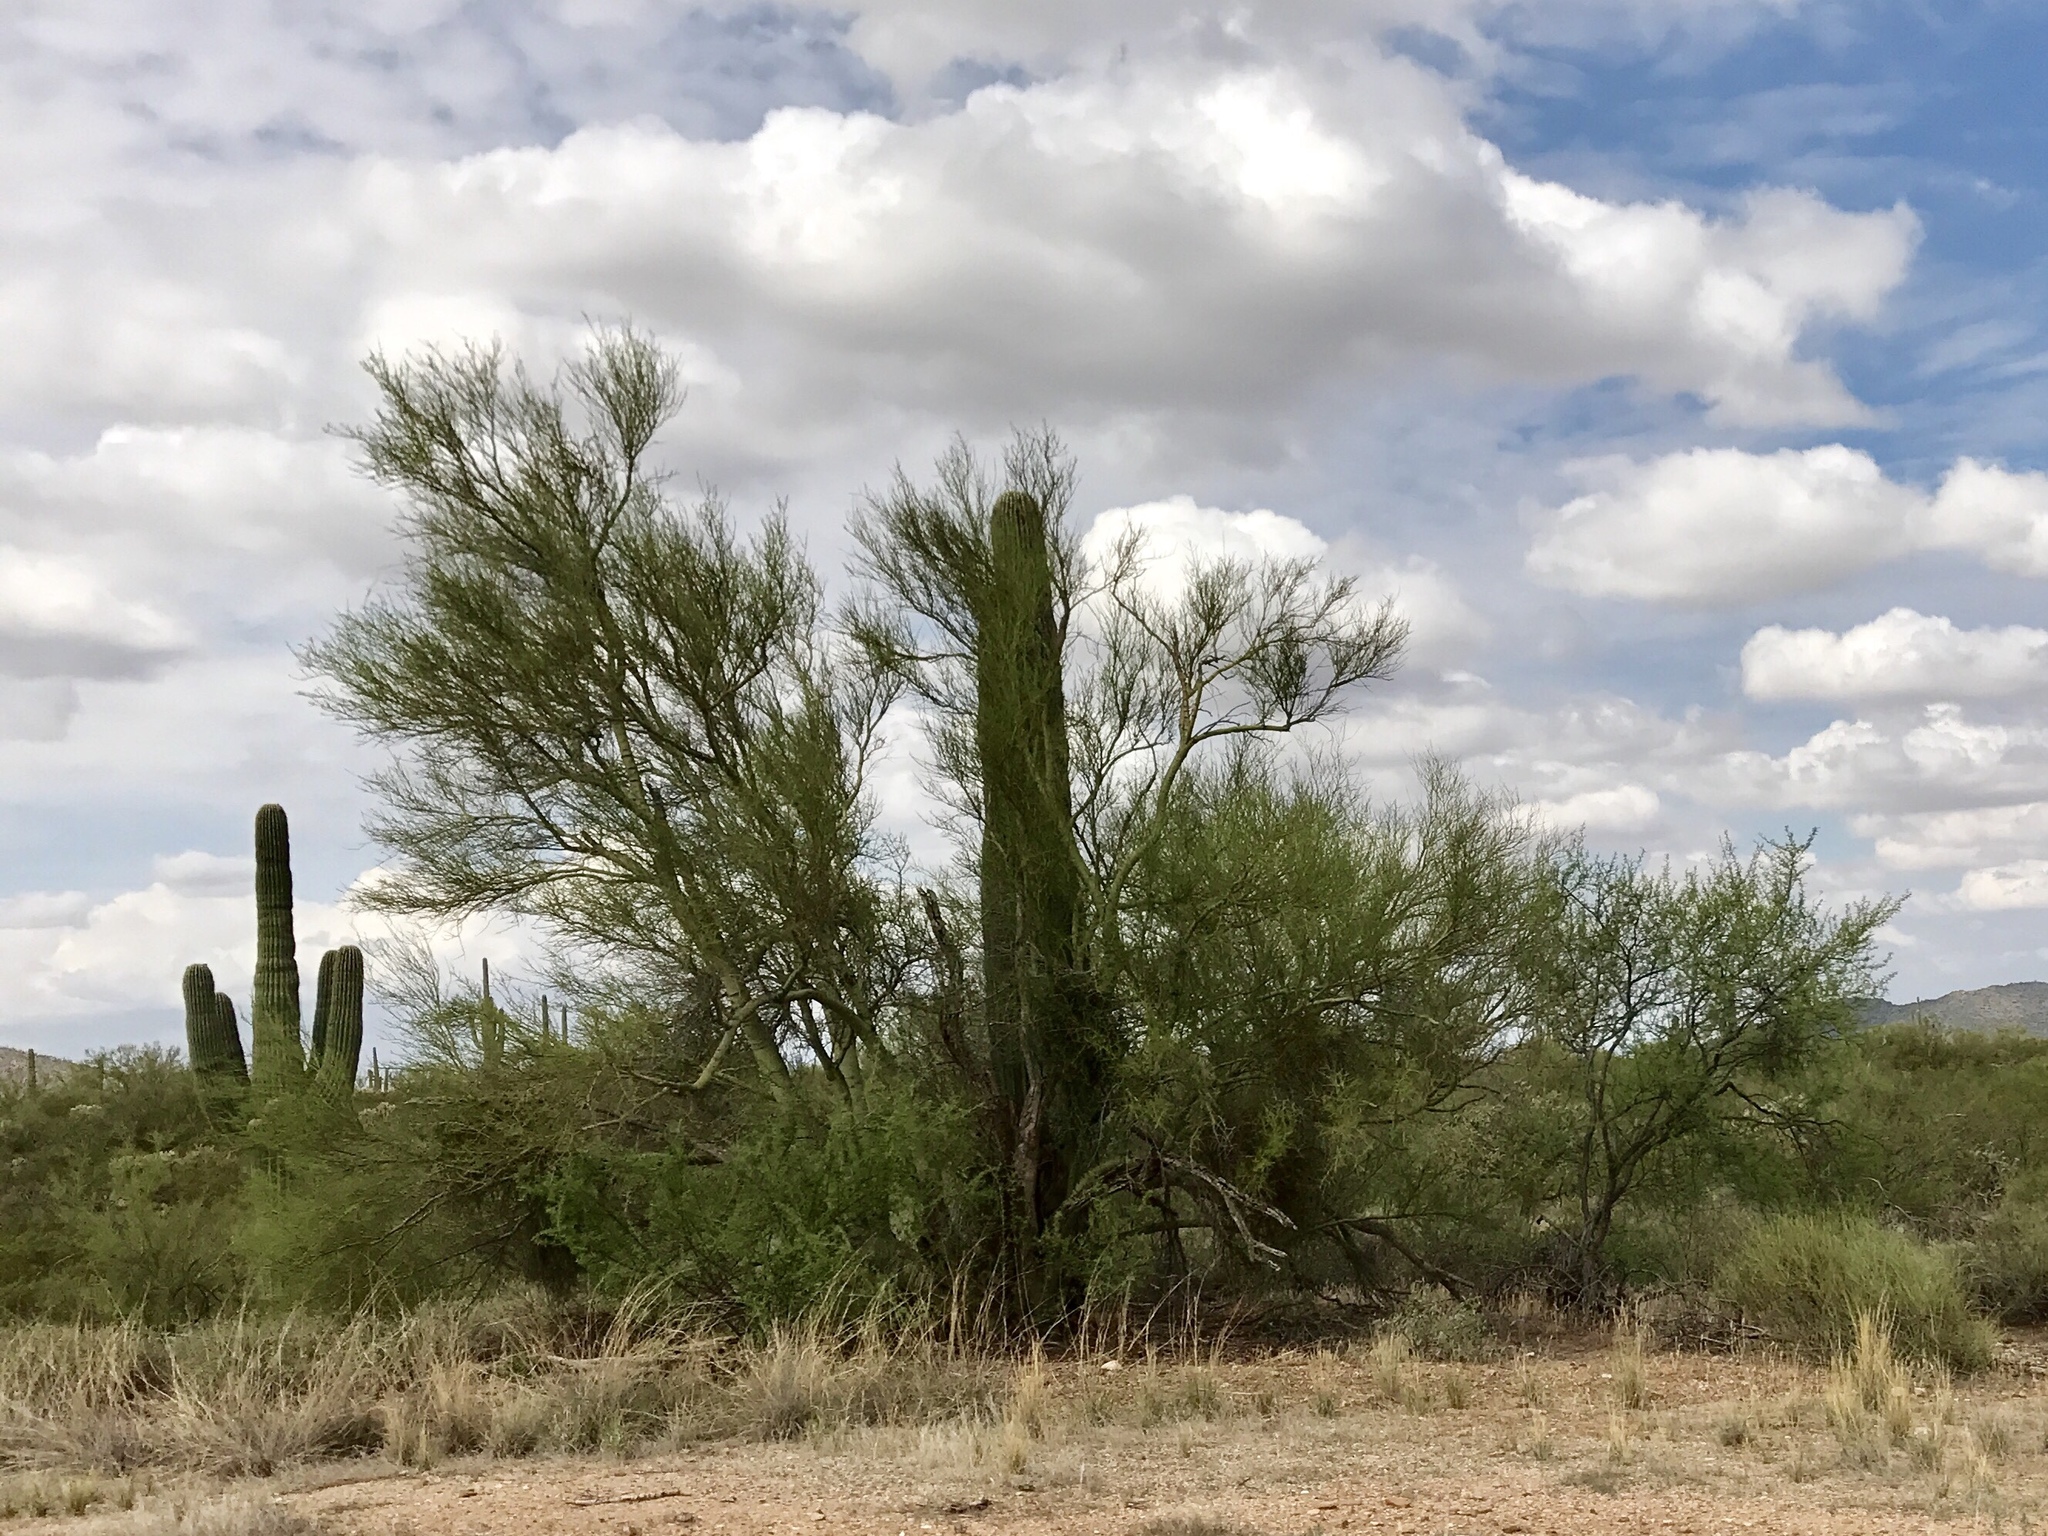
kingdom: Plantae
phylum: Tracheophyta
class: Magnoliopsida
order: Caryophyllales
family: Cactaceae
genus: Carnegiea
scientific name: Carnegiea gigantea
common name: Saguaro
